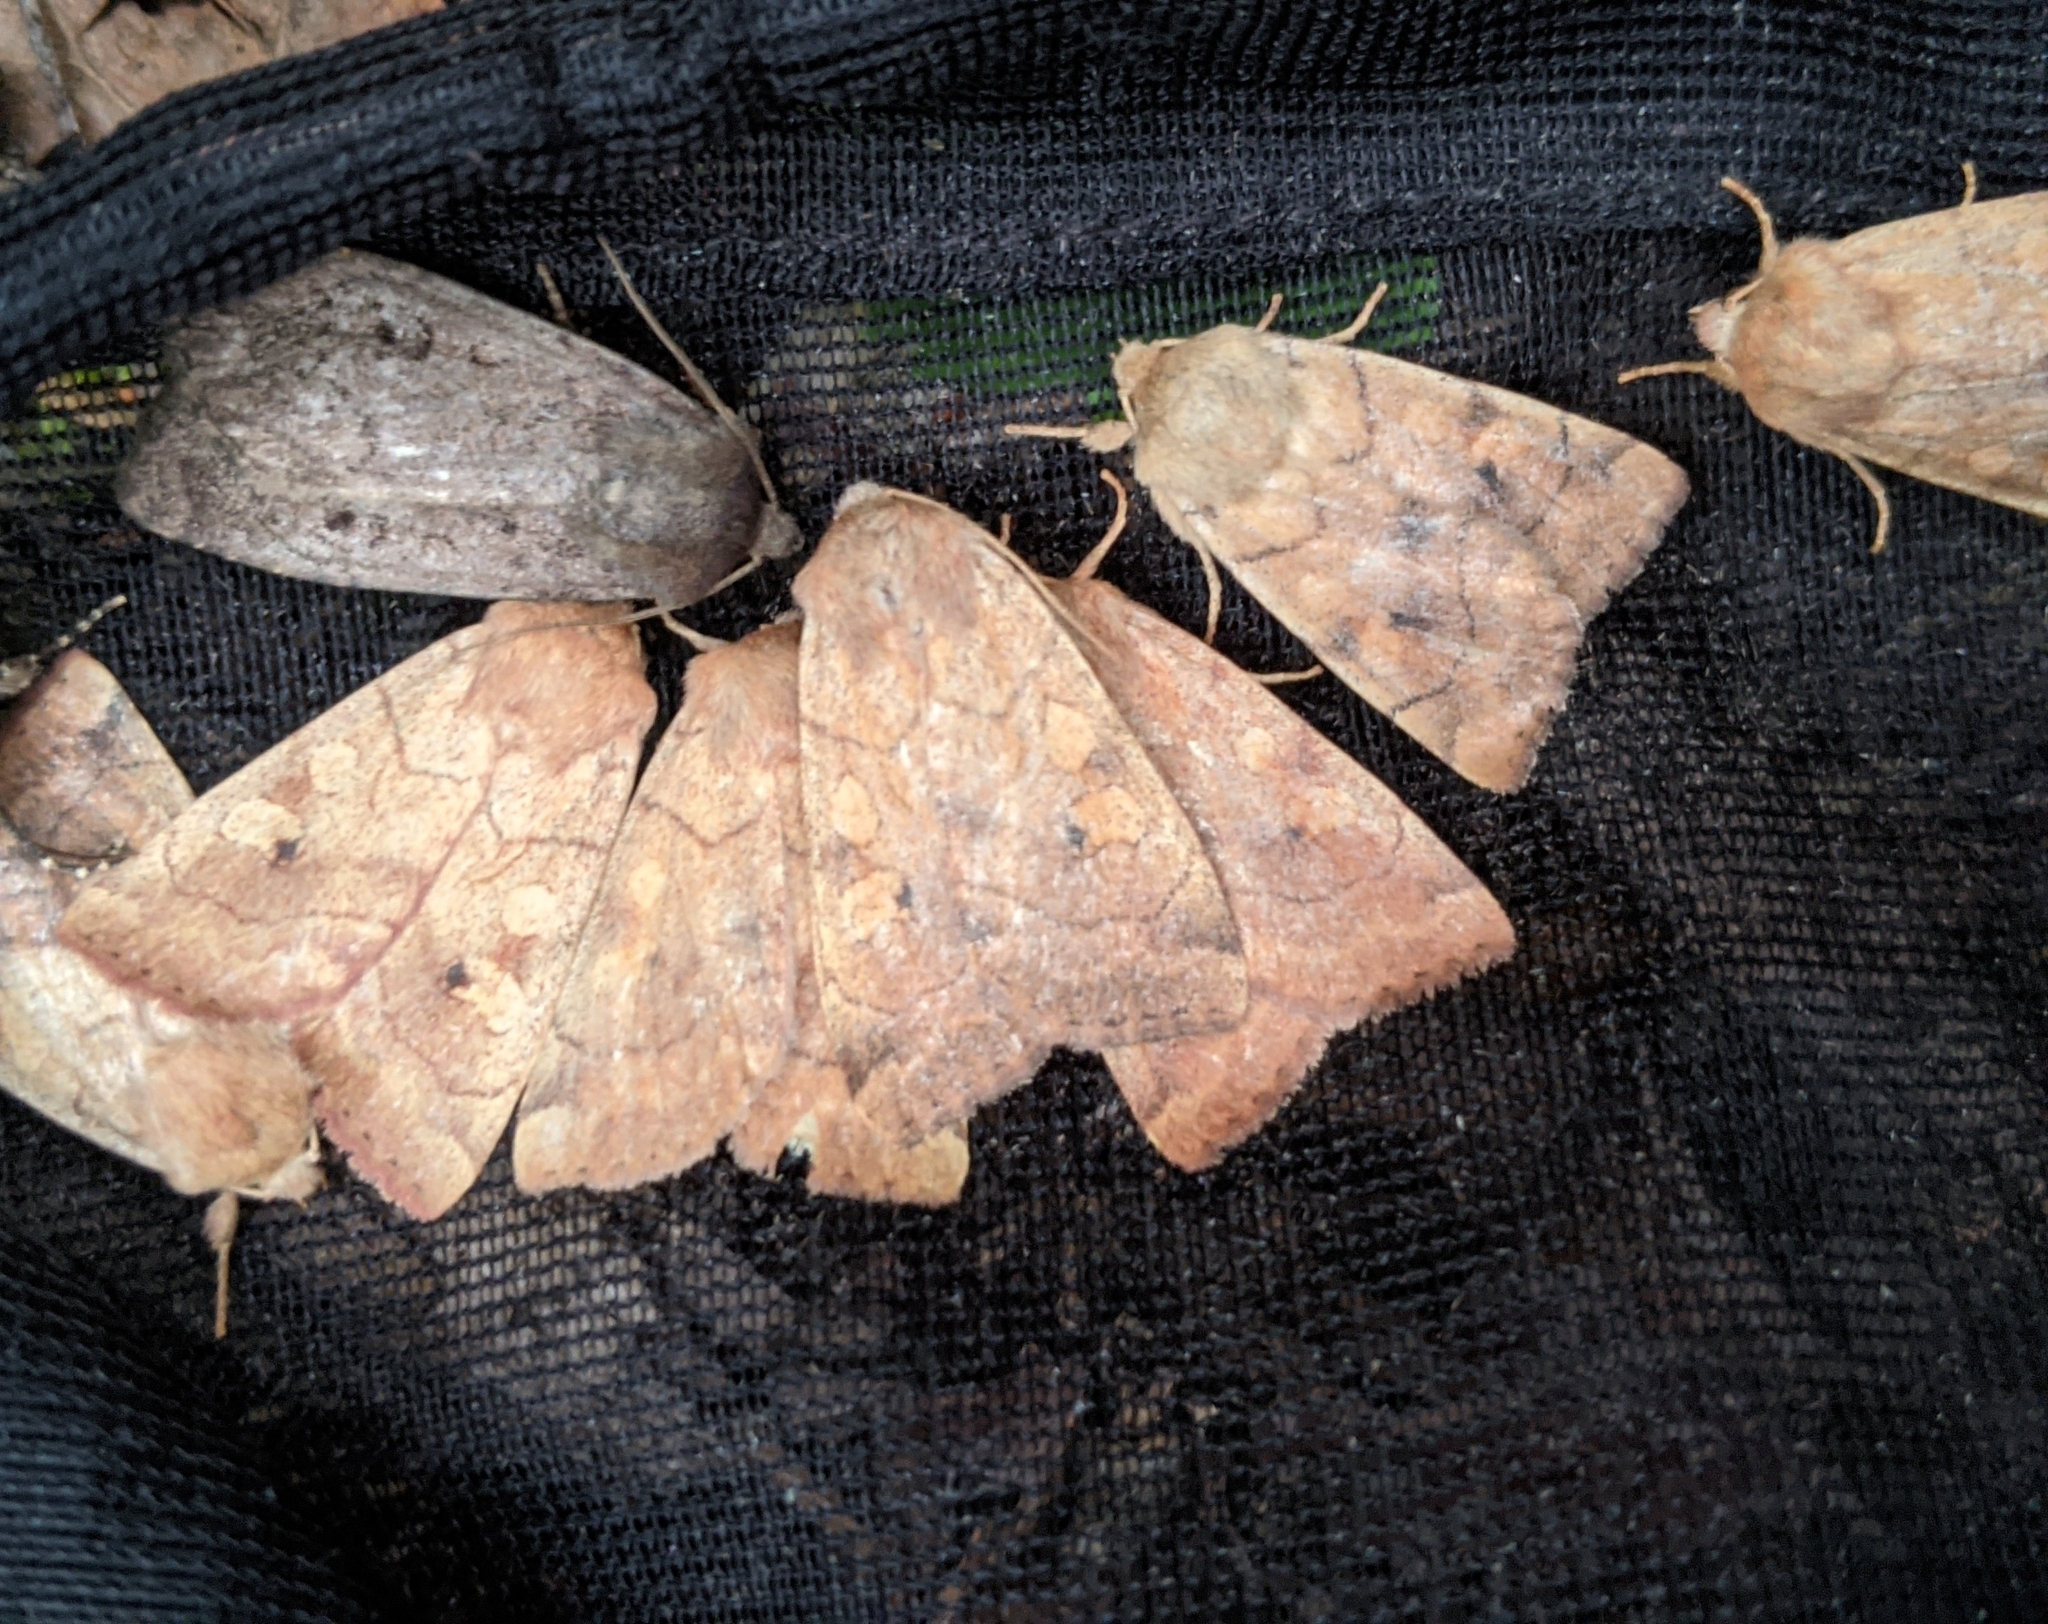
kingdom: Animalia
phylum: Arthropoda
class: Insecta
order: Lepidoptera
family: Noctuidae
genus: Enargia
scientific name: Enargia decolor
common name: Aspen twoleaf tier moth
